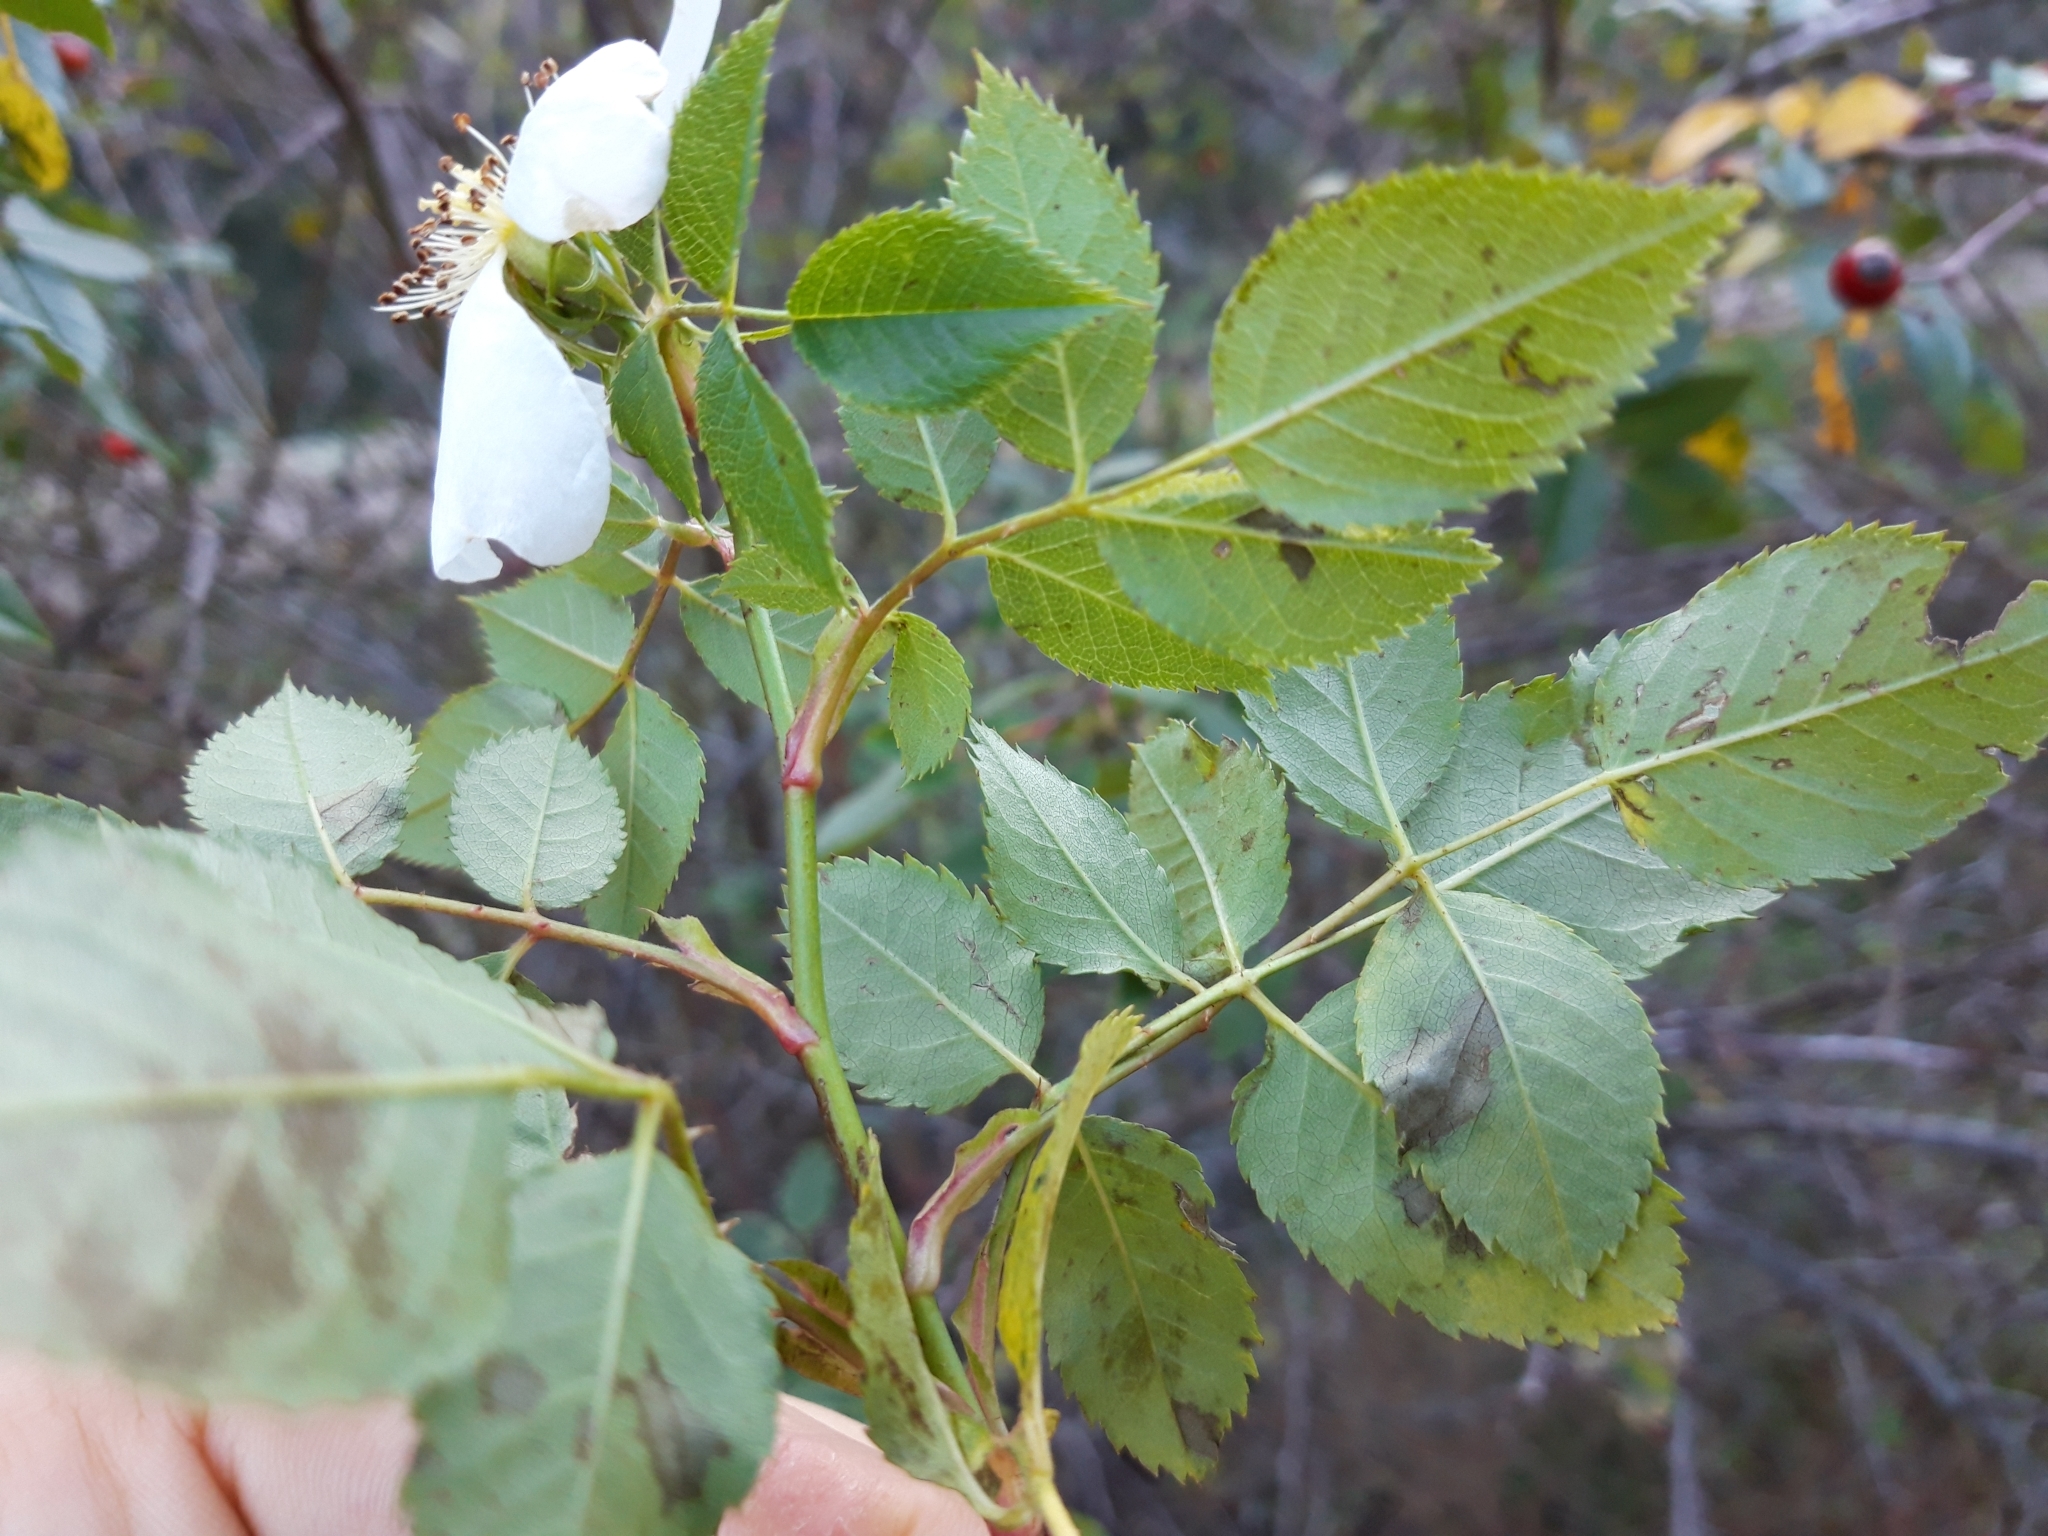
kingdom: Plantae
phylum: Tracheophyta
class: Magnoliopsida
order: Rosales
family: Rosaceae
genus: Rosa
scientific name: Rosa canina
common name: Dog rose
